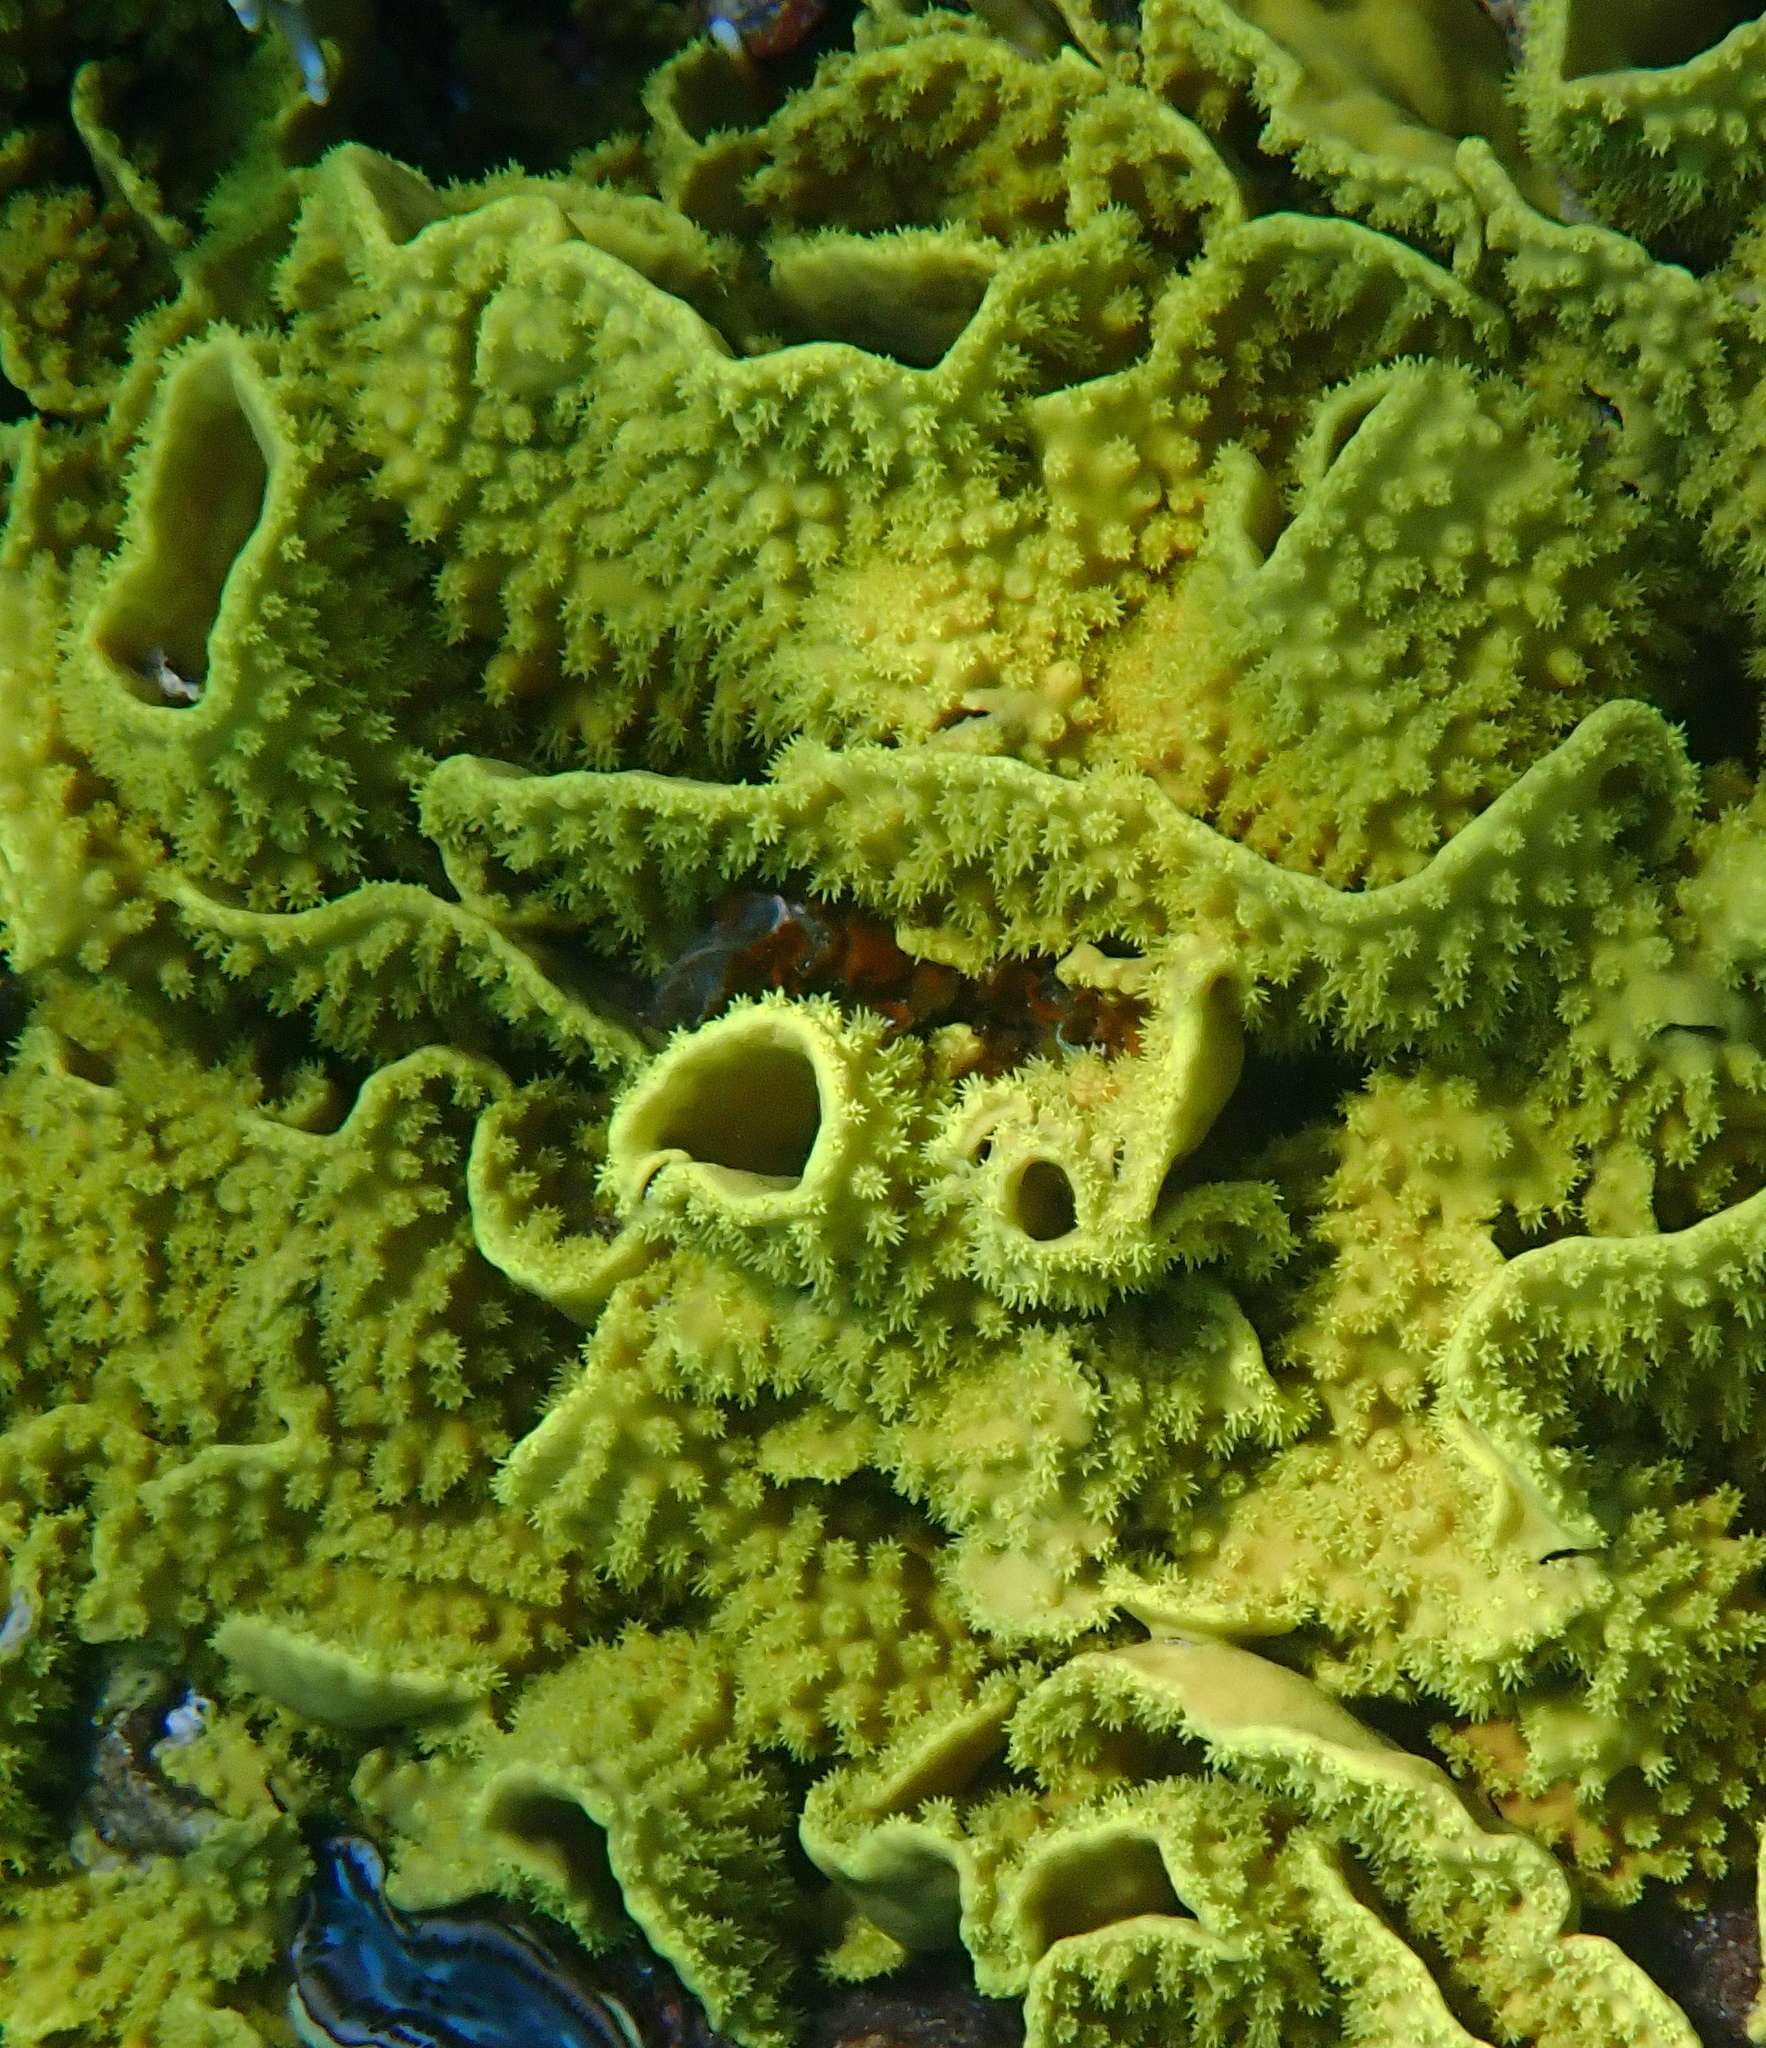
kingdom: Animalia
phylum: Cnidaria
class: Anthozoa
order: Scleractinia
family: Dendrophylliidae
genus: Turbinaria
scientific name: Turbinaria reniformis
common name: Disc coral
